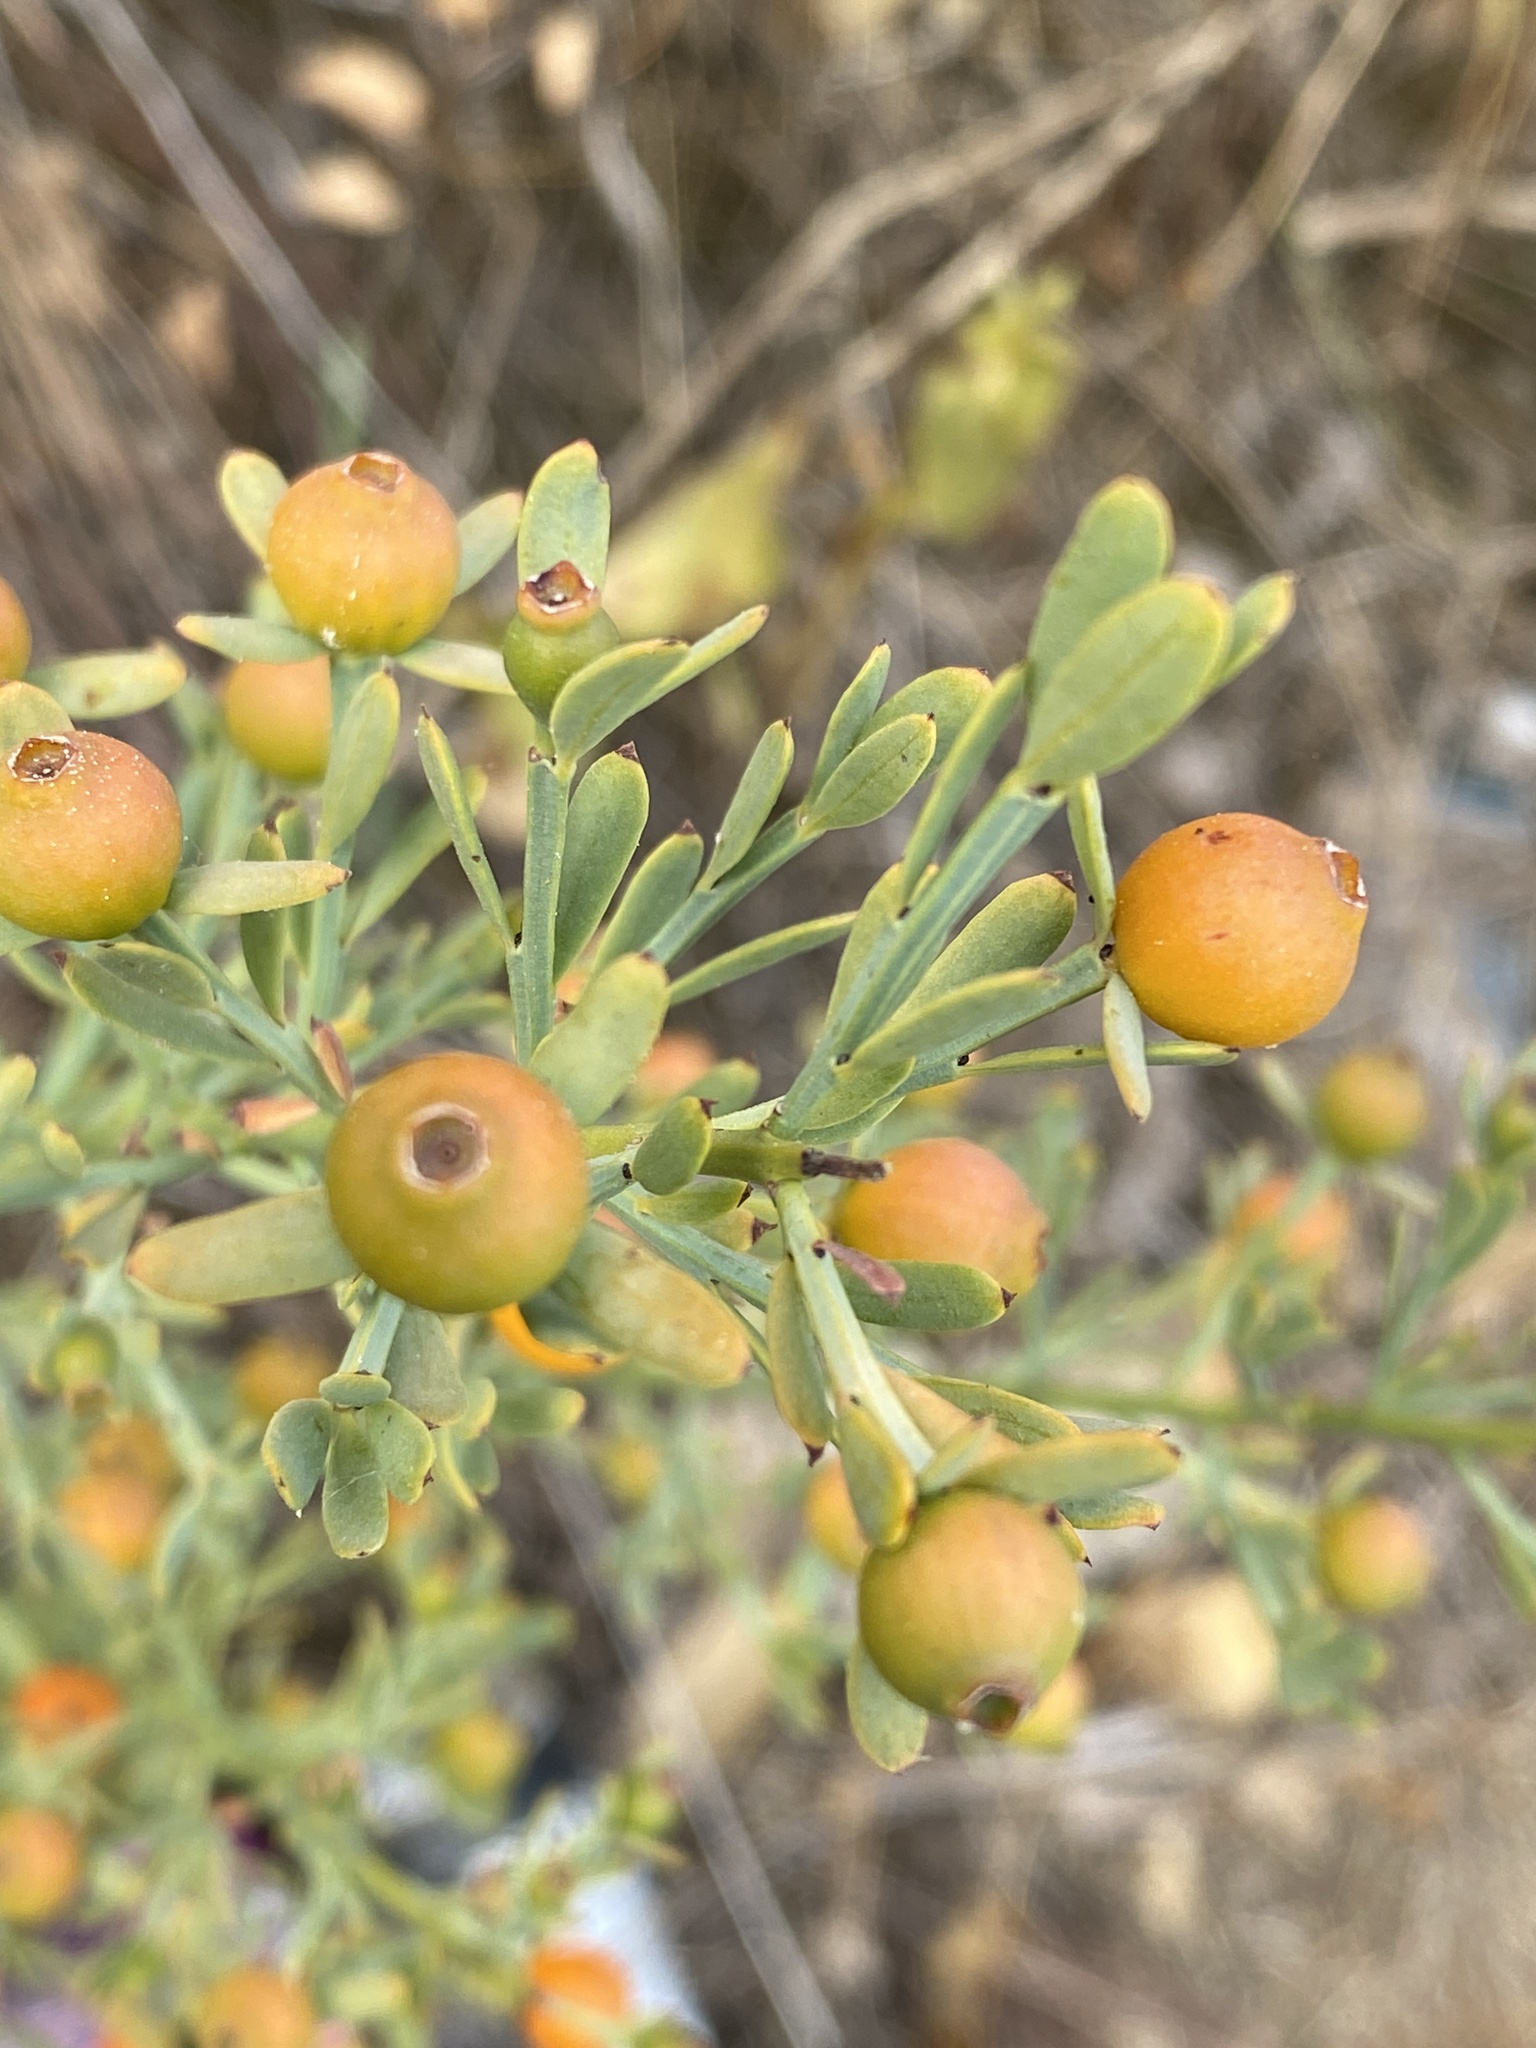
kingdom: Plantae
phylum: Tracheophyta
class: Magnoliopsida
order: Santalales
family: Santalaceae
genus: Osyris
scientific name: Osyris alba
